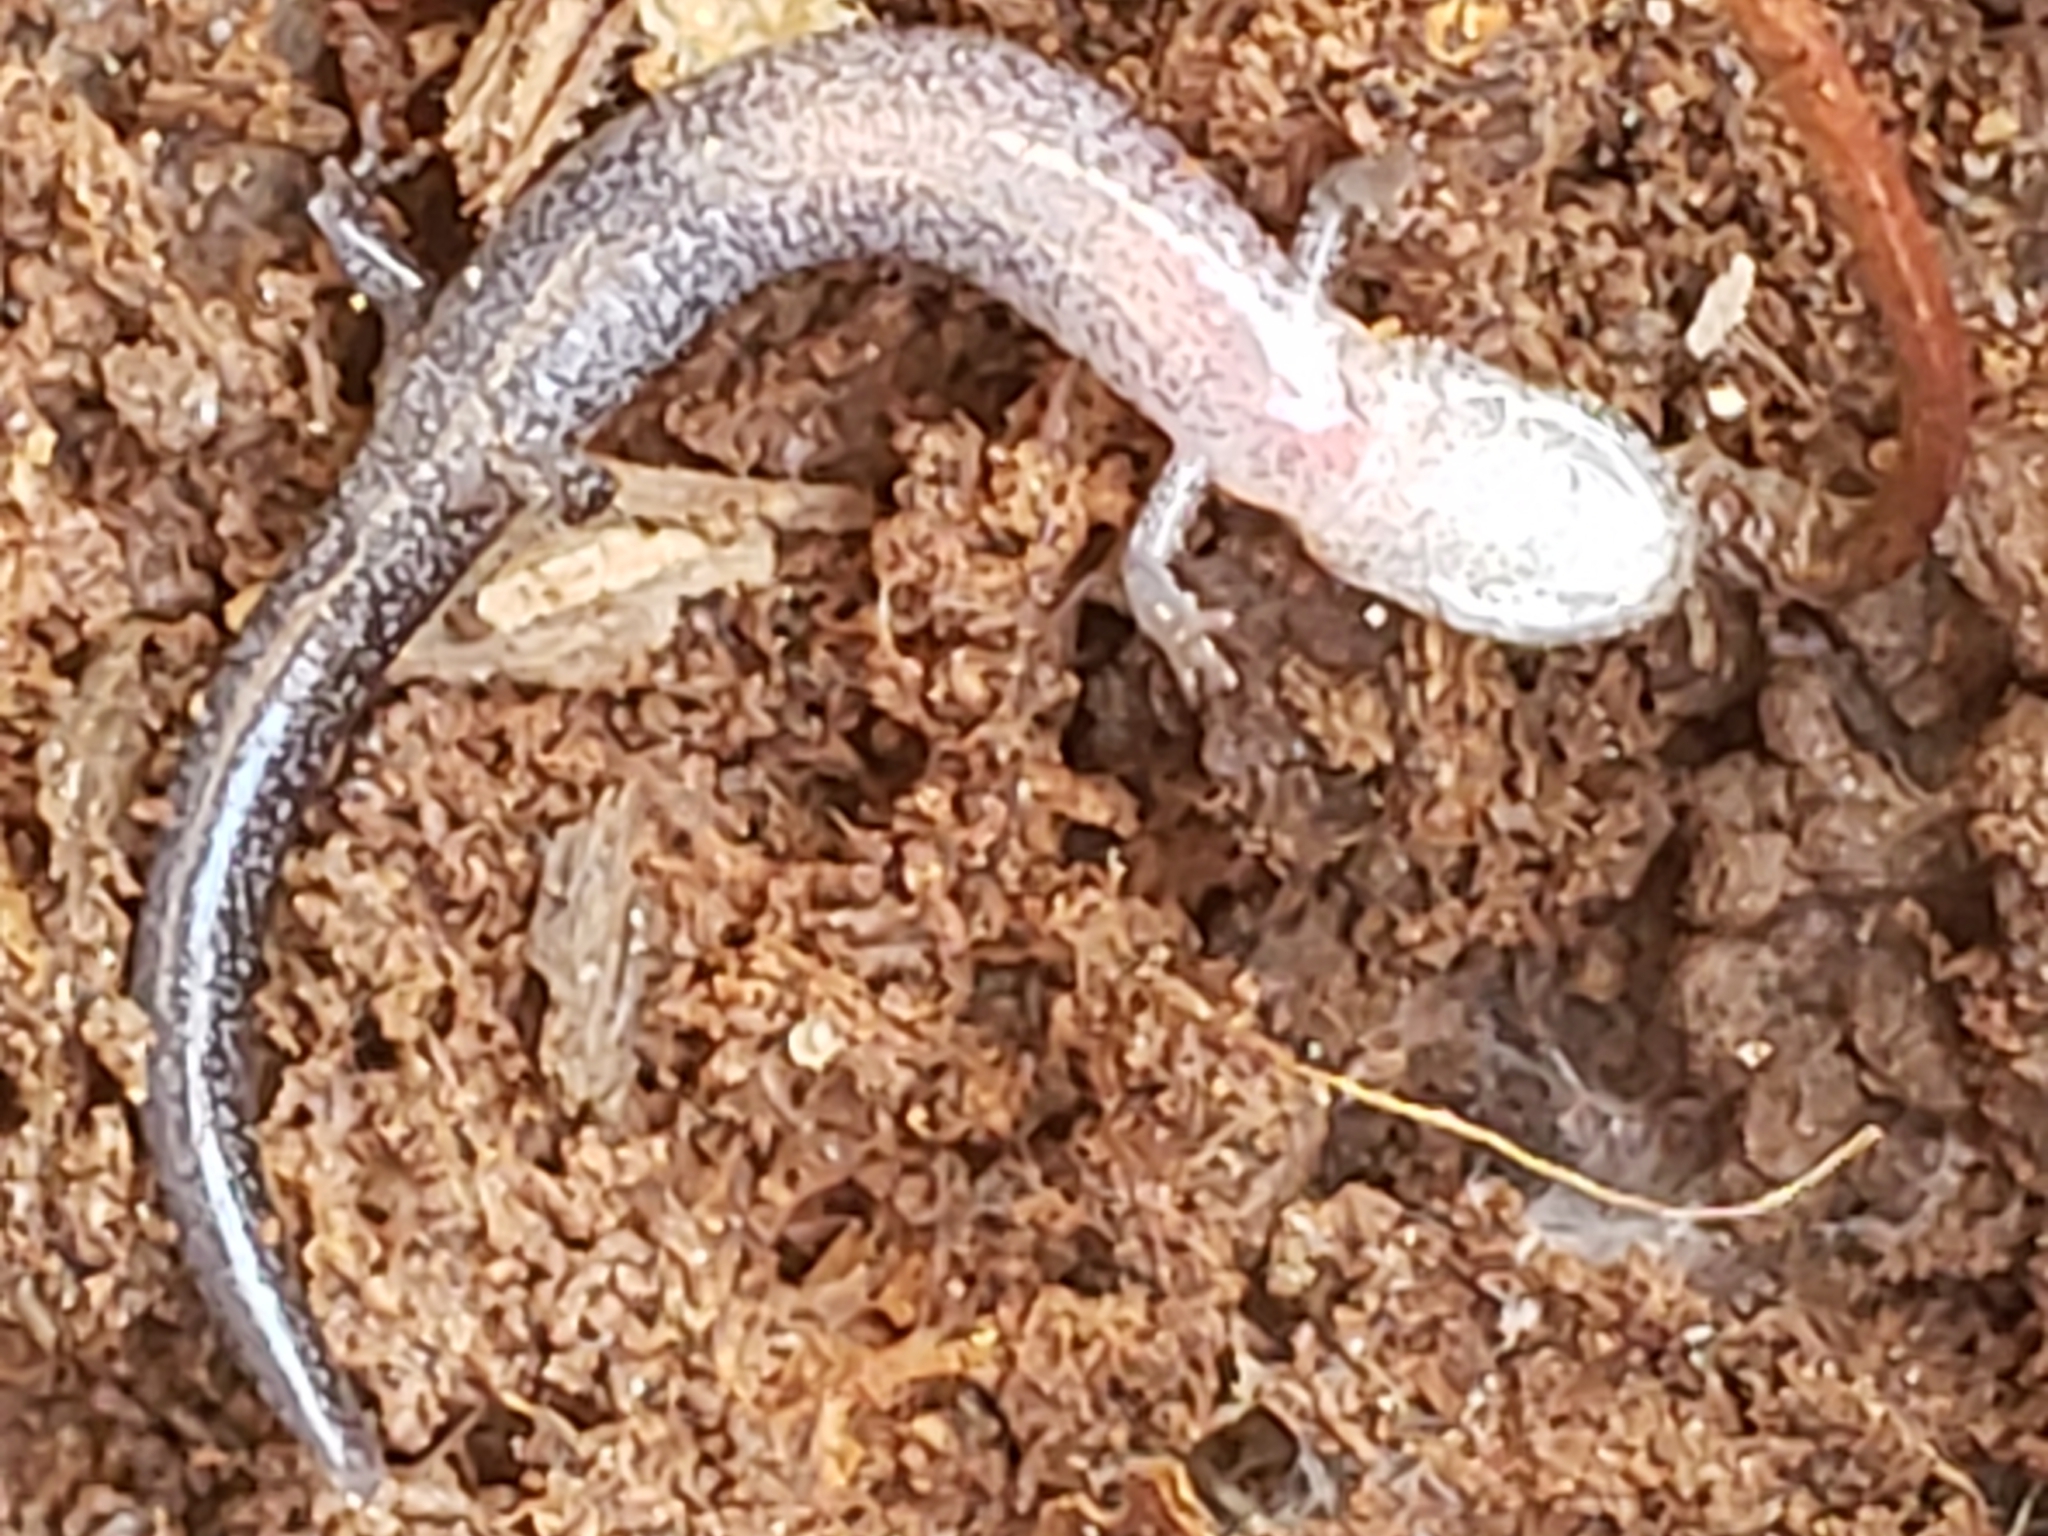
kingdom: Animalia
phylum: Chordata
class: Amphibia
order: Caudata
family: Plethodontidae
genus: Plethodon
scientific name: Plethodon cinereus
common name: Redback salamander
